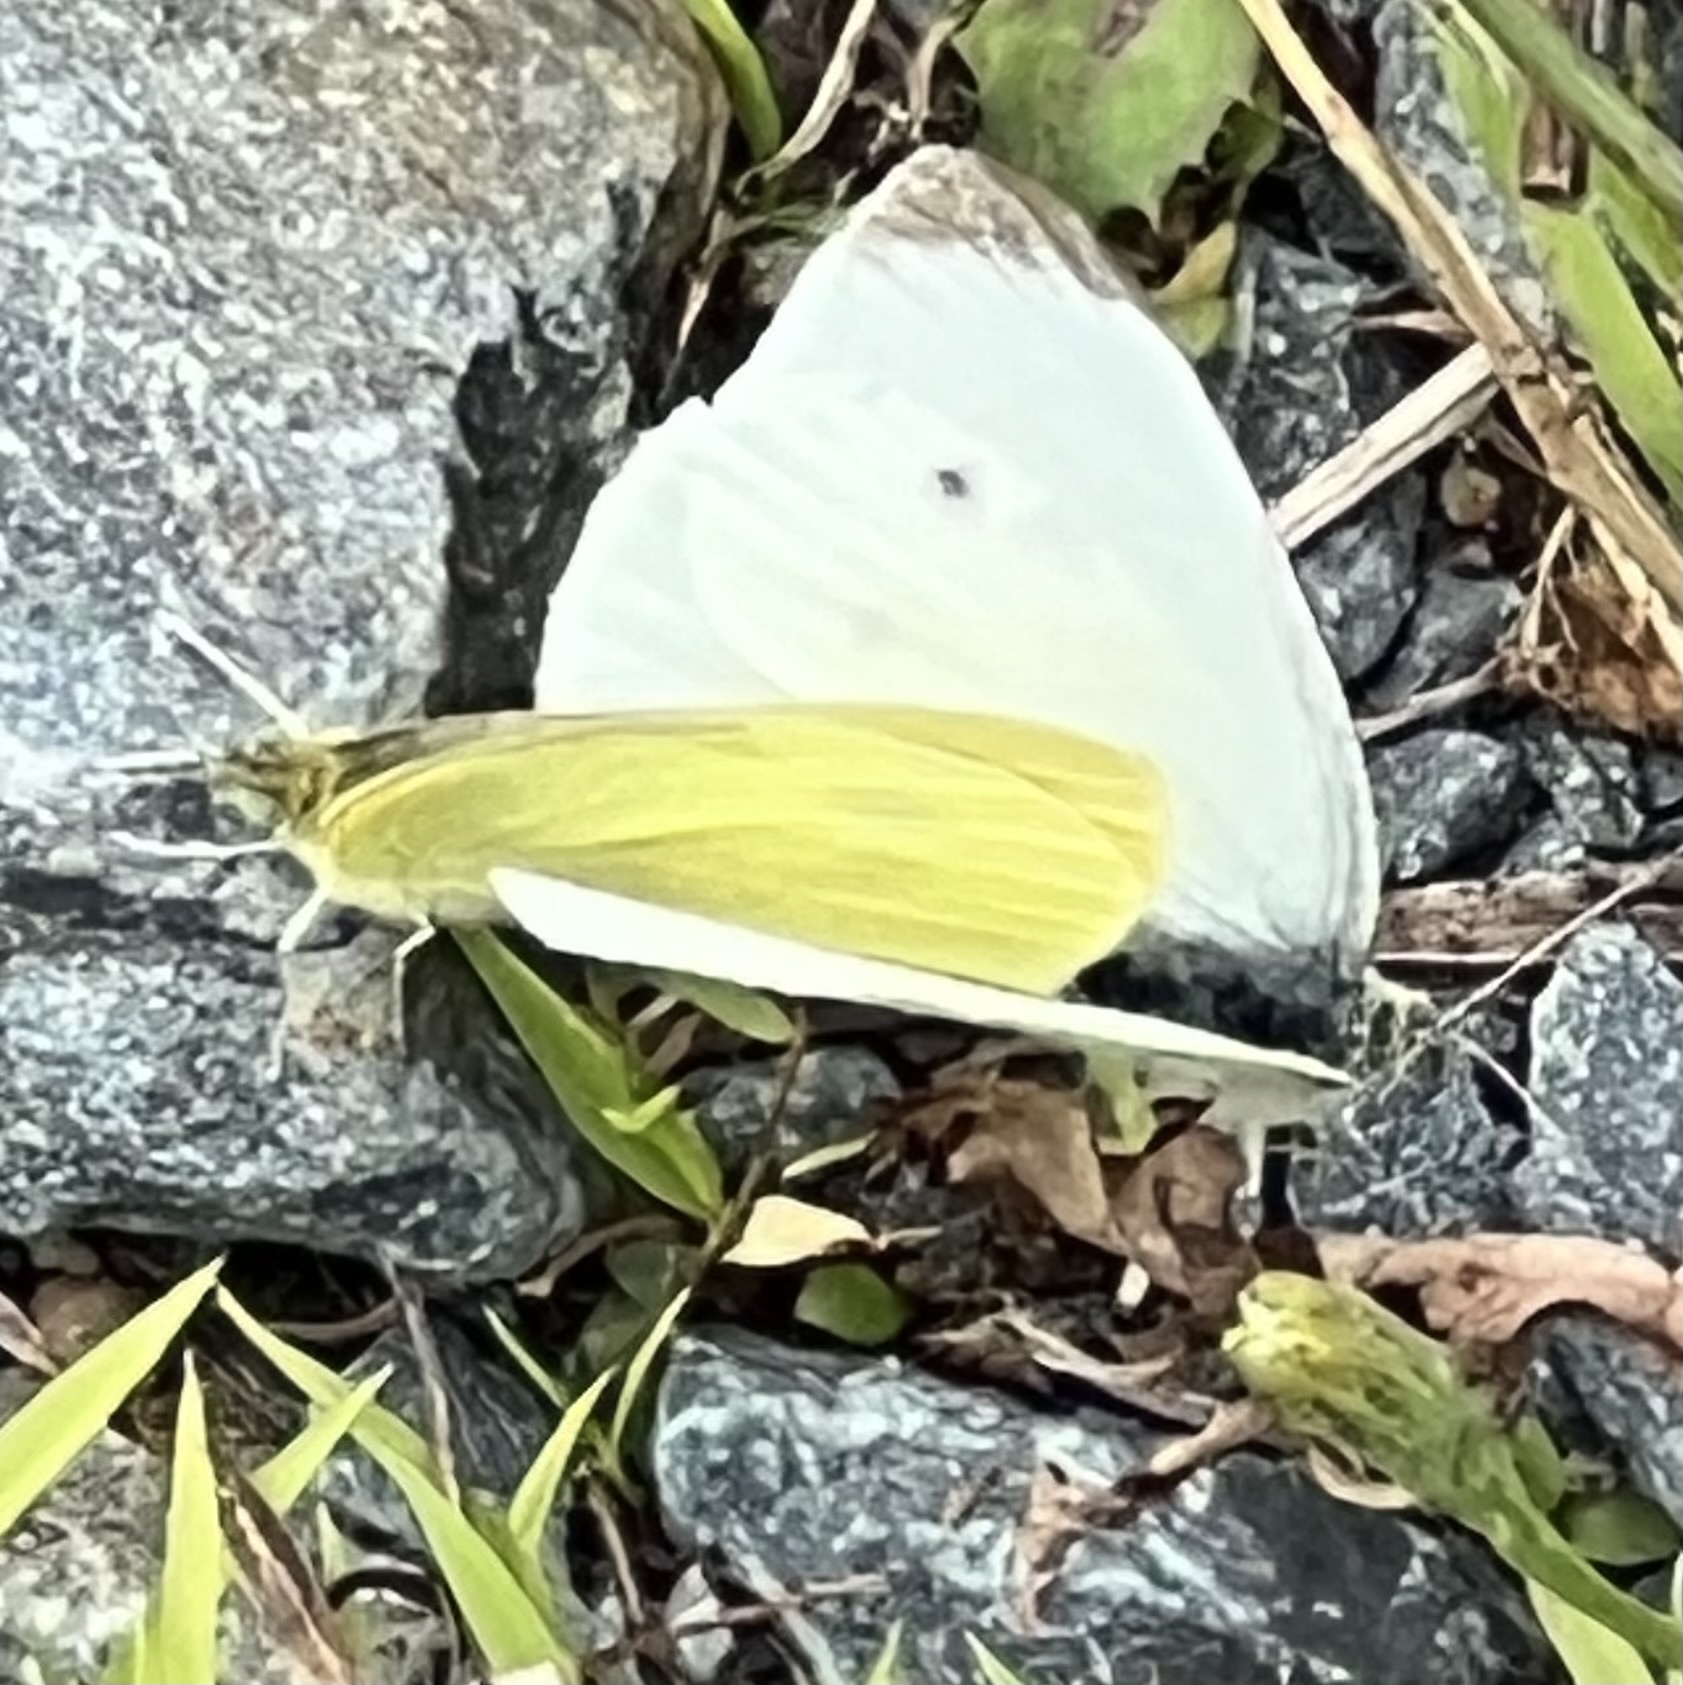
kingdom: Animalia
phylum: Arthropoda
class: Insecta
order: Lepidoptera
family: Pieridae
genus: Pieris
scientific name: Pieris rapae
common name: Small white
